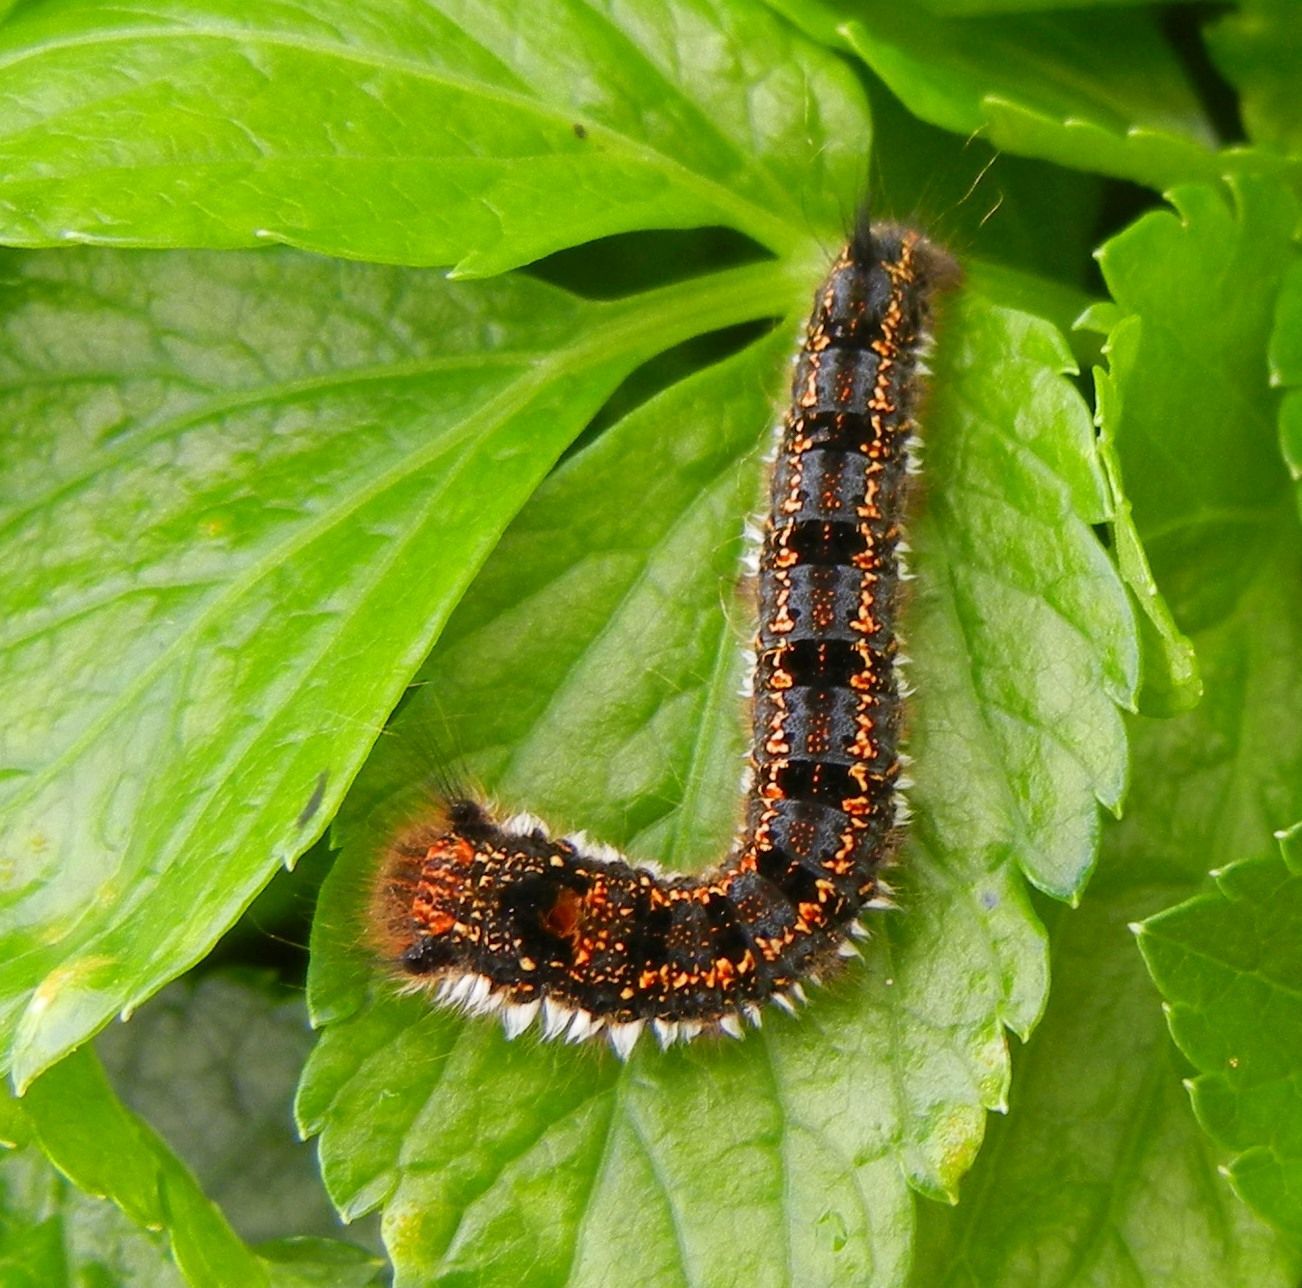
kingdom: Animalia
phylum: Arthropoda
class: Insecta
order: Lepidoptera
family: Lasiocampidae
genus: Euthrix
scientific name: Euthrix potatoria
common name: Drinker
